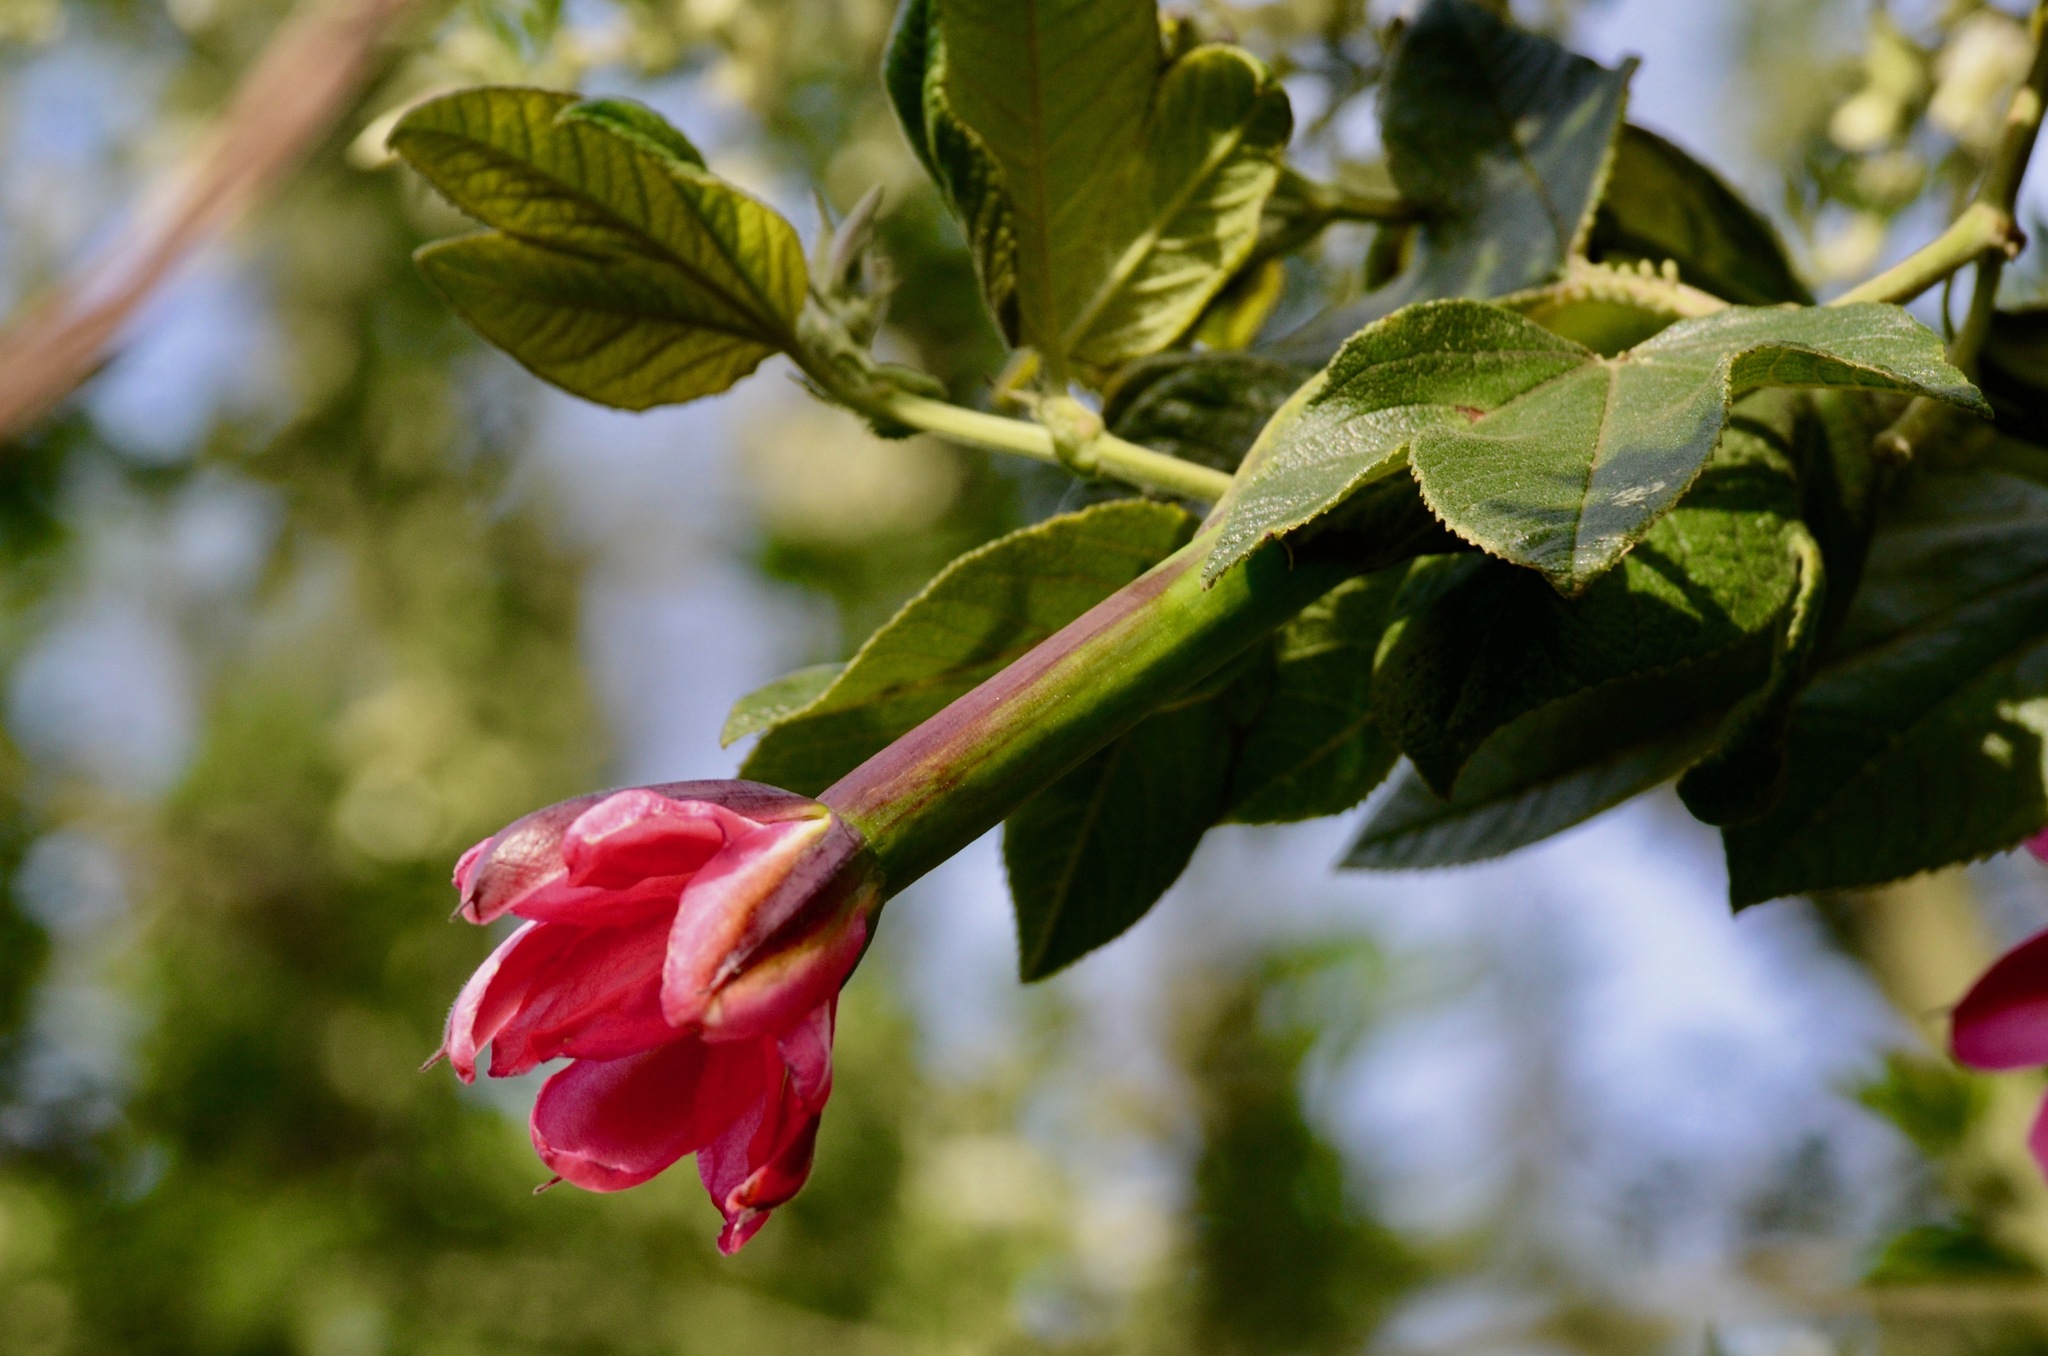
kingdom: Plantae
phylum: Tracheophyta
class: Magnoliopsida
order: Malpighiales
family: Passifloraceae
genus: Passiflora
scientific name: Passiflora tripartita
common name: Banana poka
